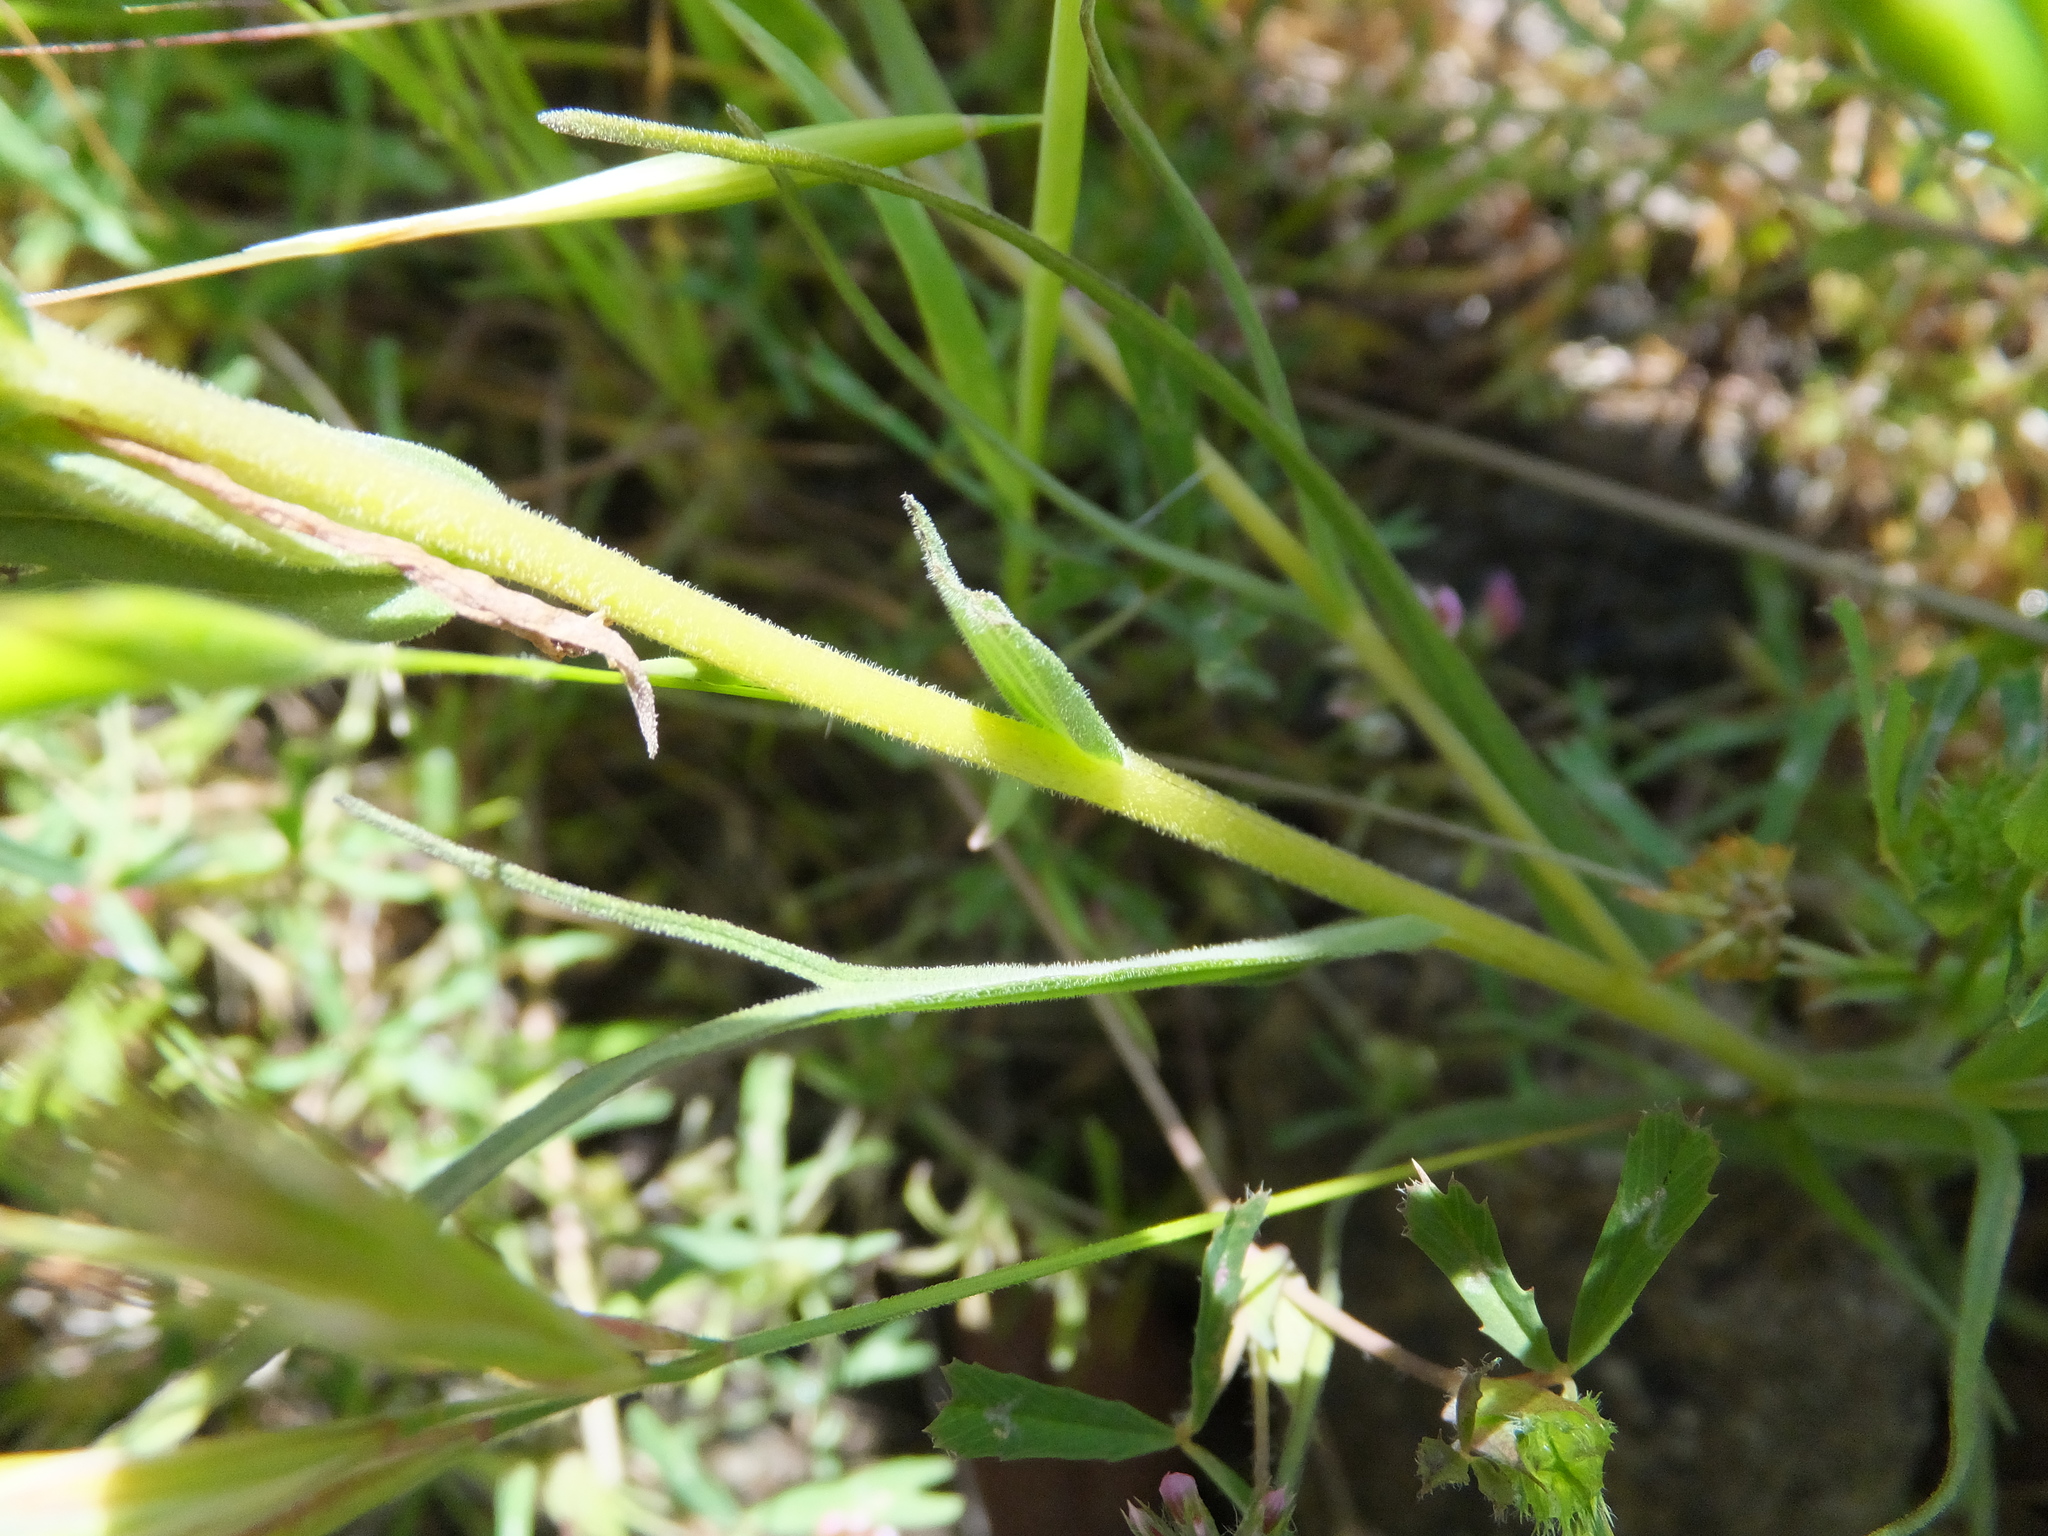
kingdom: Plantae
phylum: Tracheophyta
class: Magnoliopsida
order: Lamiales
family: Orobanchaceae
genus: Castilleja
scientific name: Castilleja densiflora
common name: Dense-flower indian paintbrush
